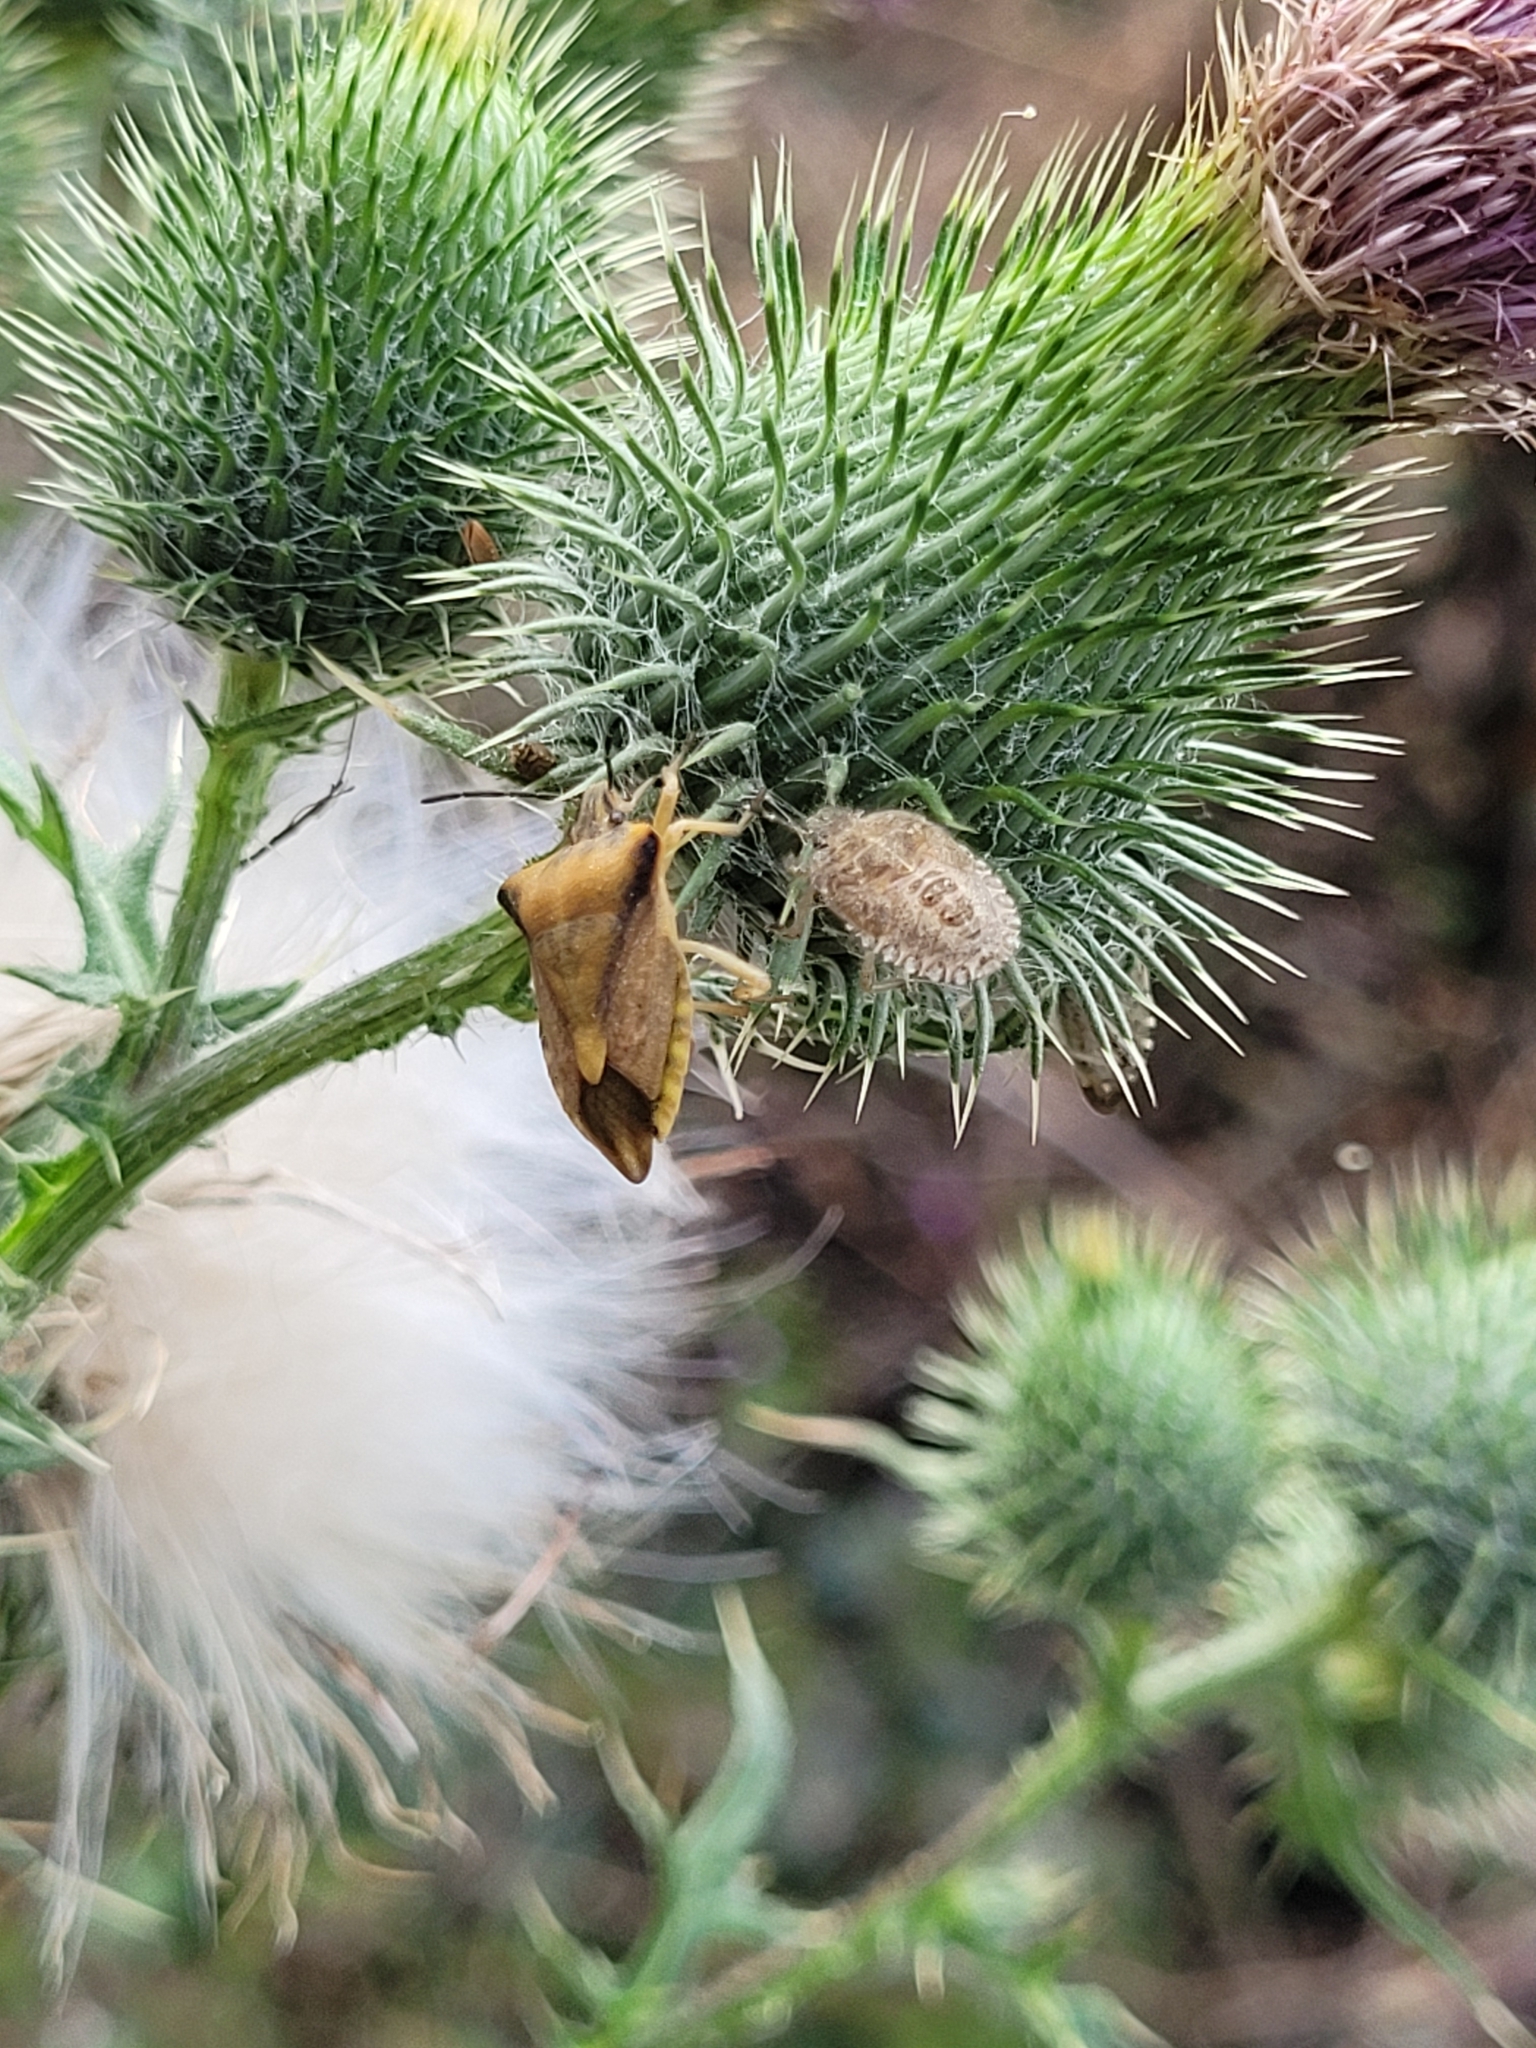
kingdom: Animalia
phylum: Arthropoda
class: Insecta
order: Hemiptera
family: Pentatomidae
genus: Carpocoris
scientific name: Carpocoris fuscispinus
